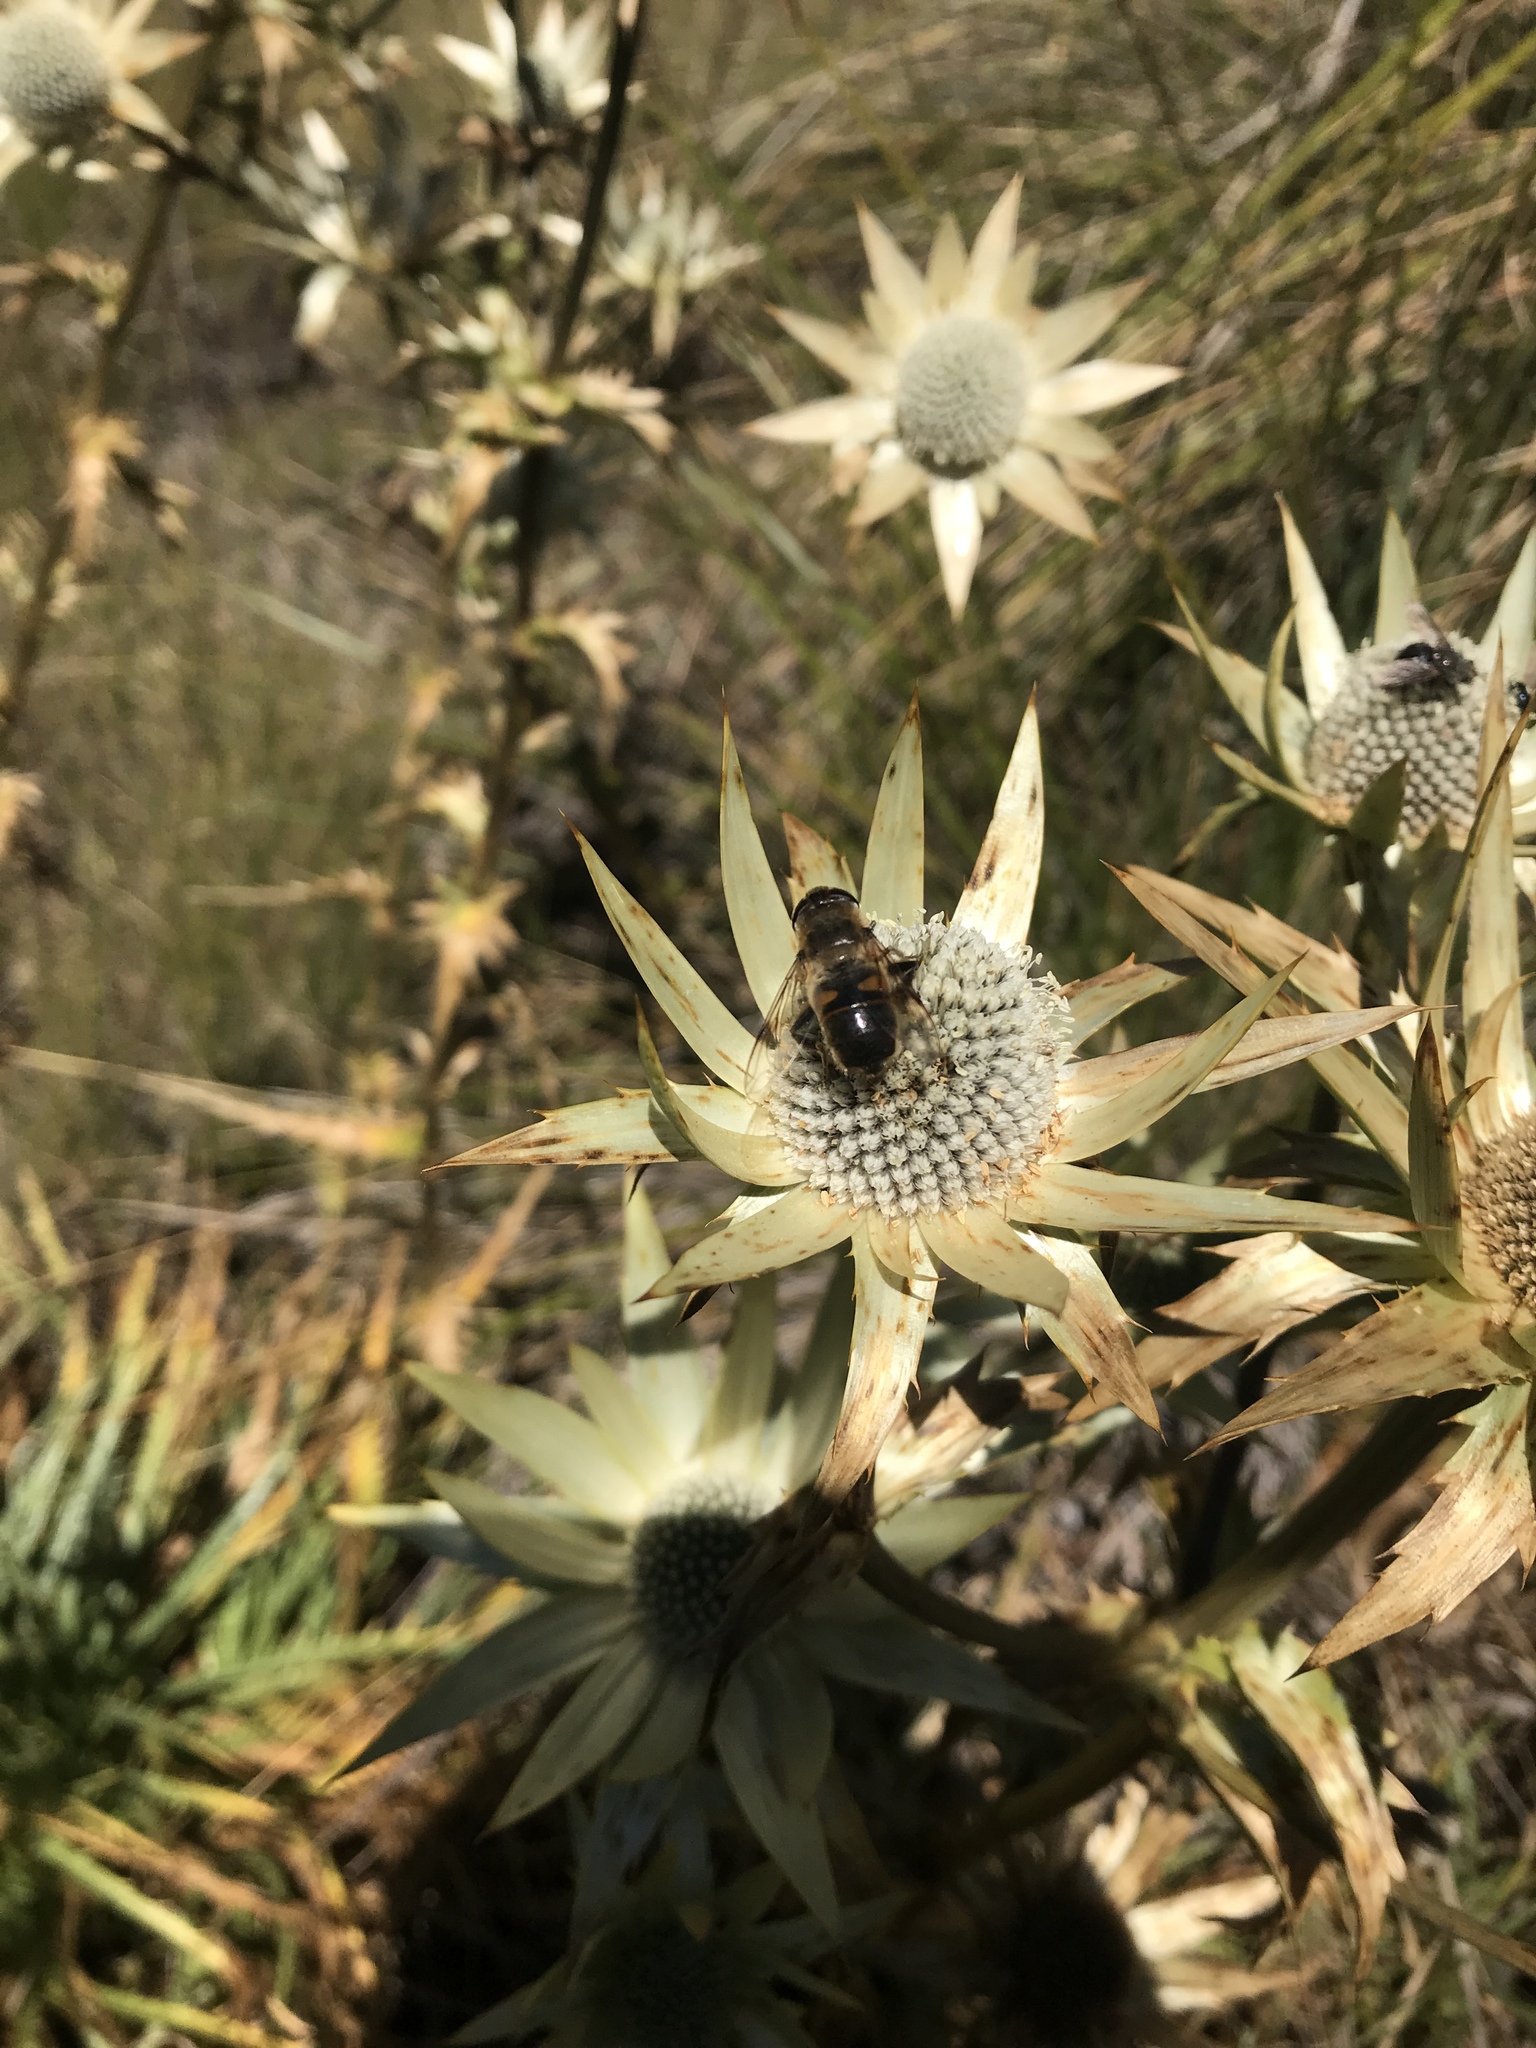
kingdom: Animalia
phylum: Arthropoda
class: Insecta
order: Diptera
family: Syrphidae
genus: Eristalis
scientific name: Eristalis tenax
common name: Drone fly
